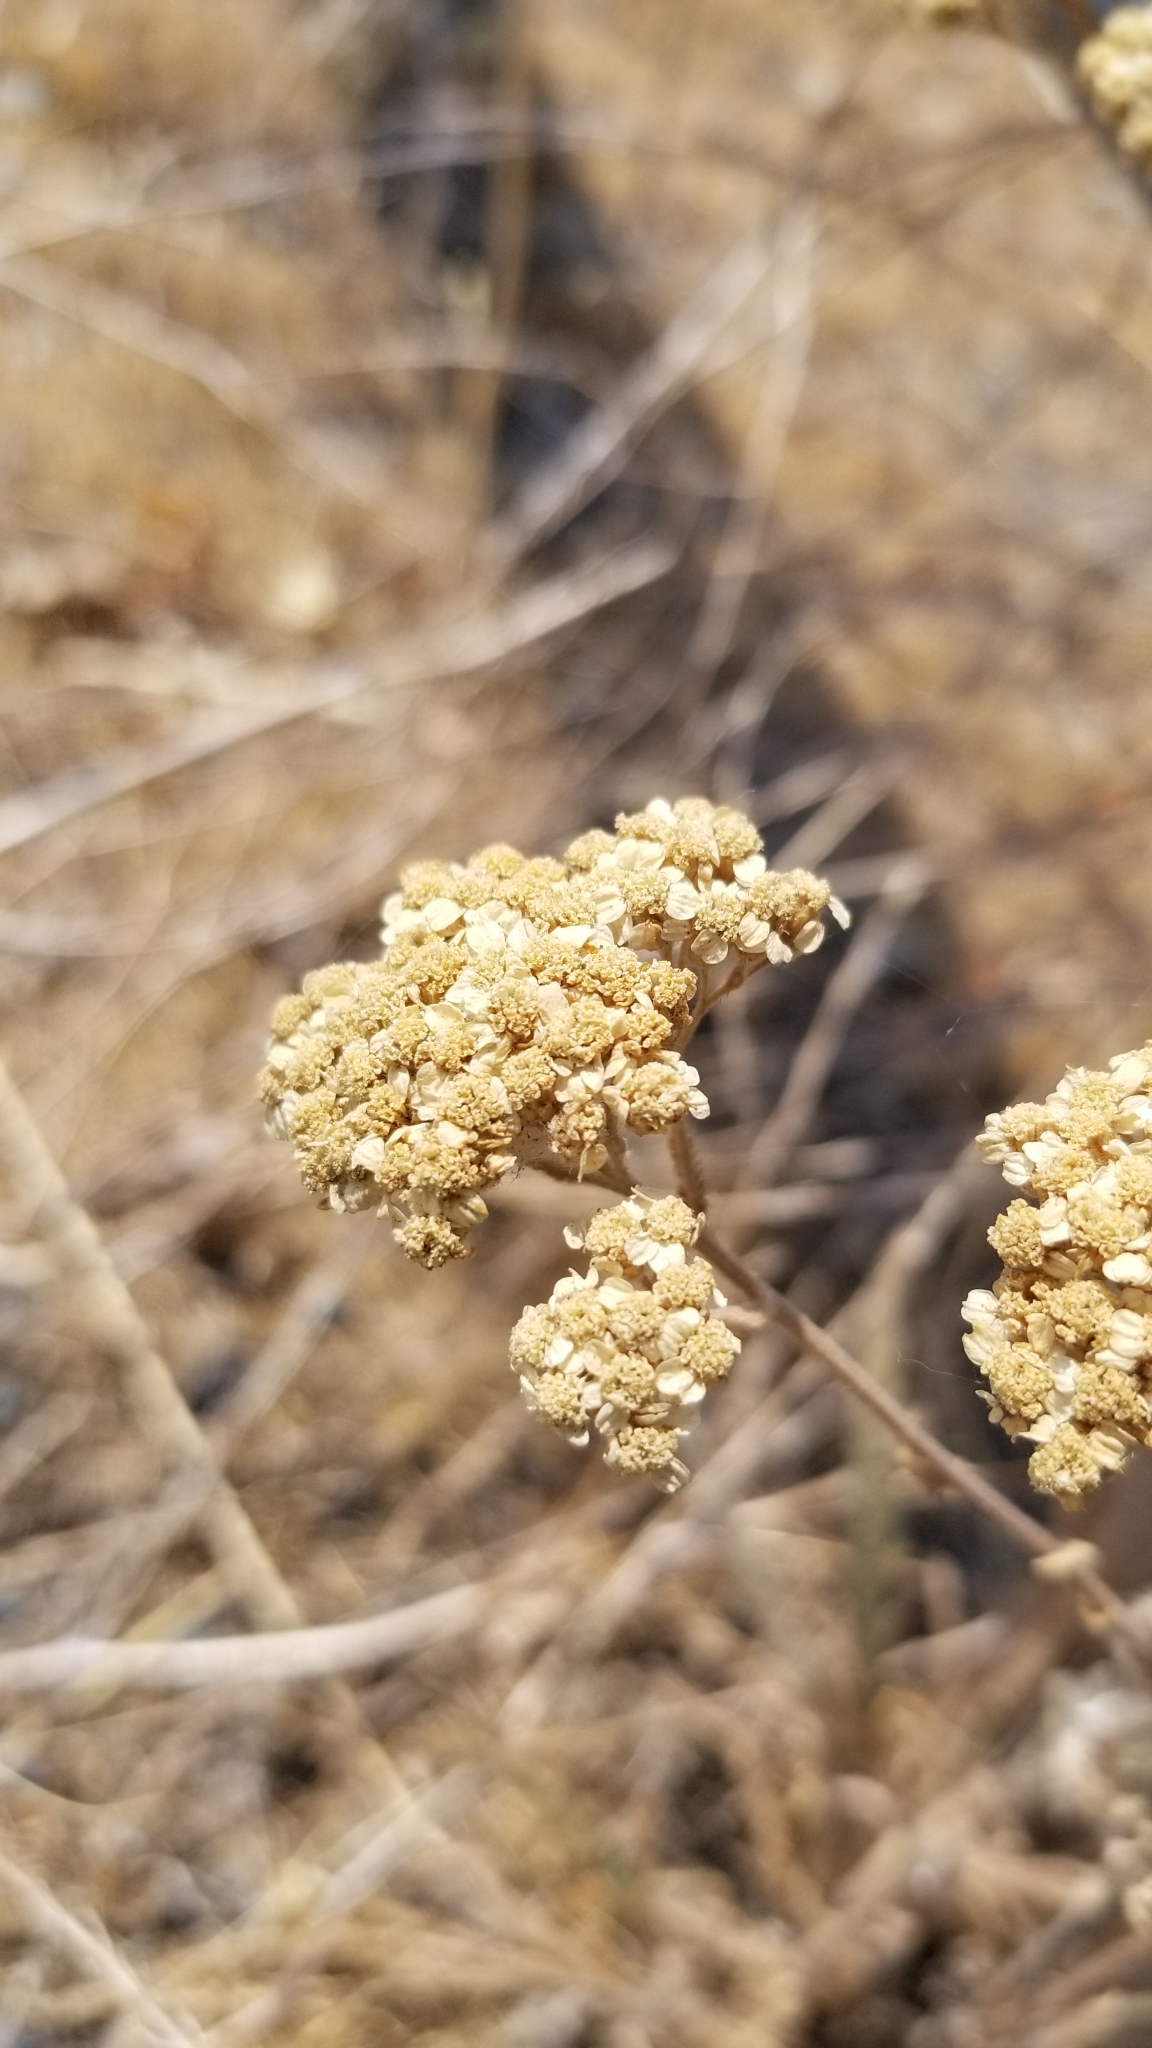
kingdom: Plantae
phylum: Tracheophyta
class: Magnoliopsida
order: Asterales
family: Asteraceae
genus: Achillea
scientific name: Achillea millefolium
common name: Yarrow
